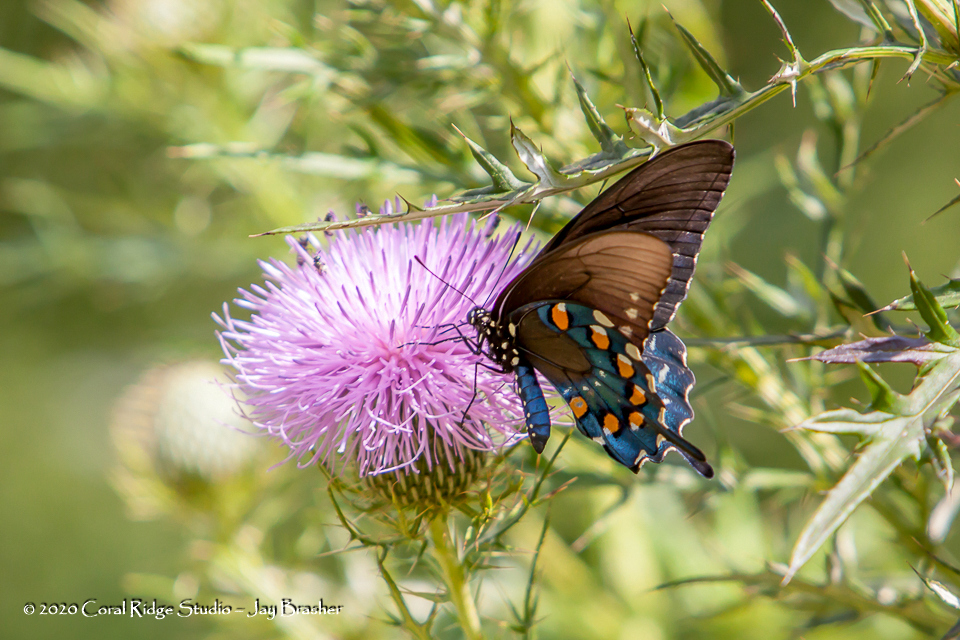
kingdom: Animalia
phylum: Arthropoda
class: Insecta
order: Lepidoptera
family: Papilionidae
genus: Battus
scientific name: Battus philenor
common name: Pipevine swallowtail
